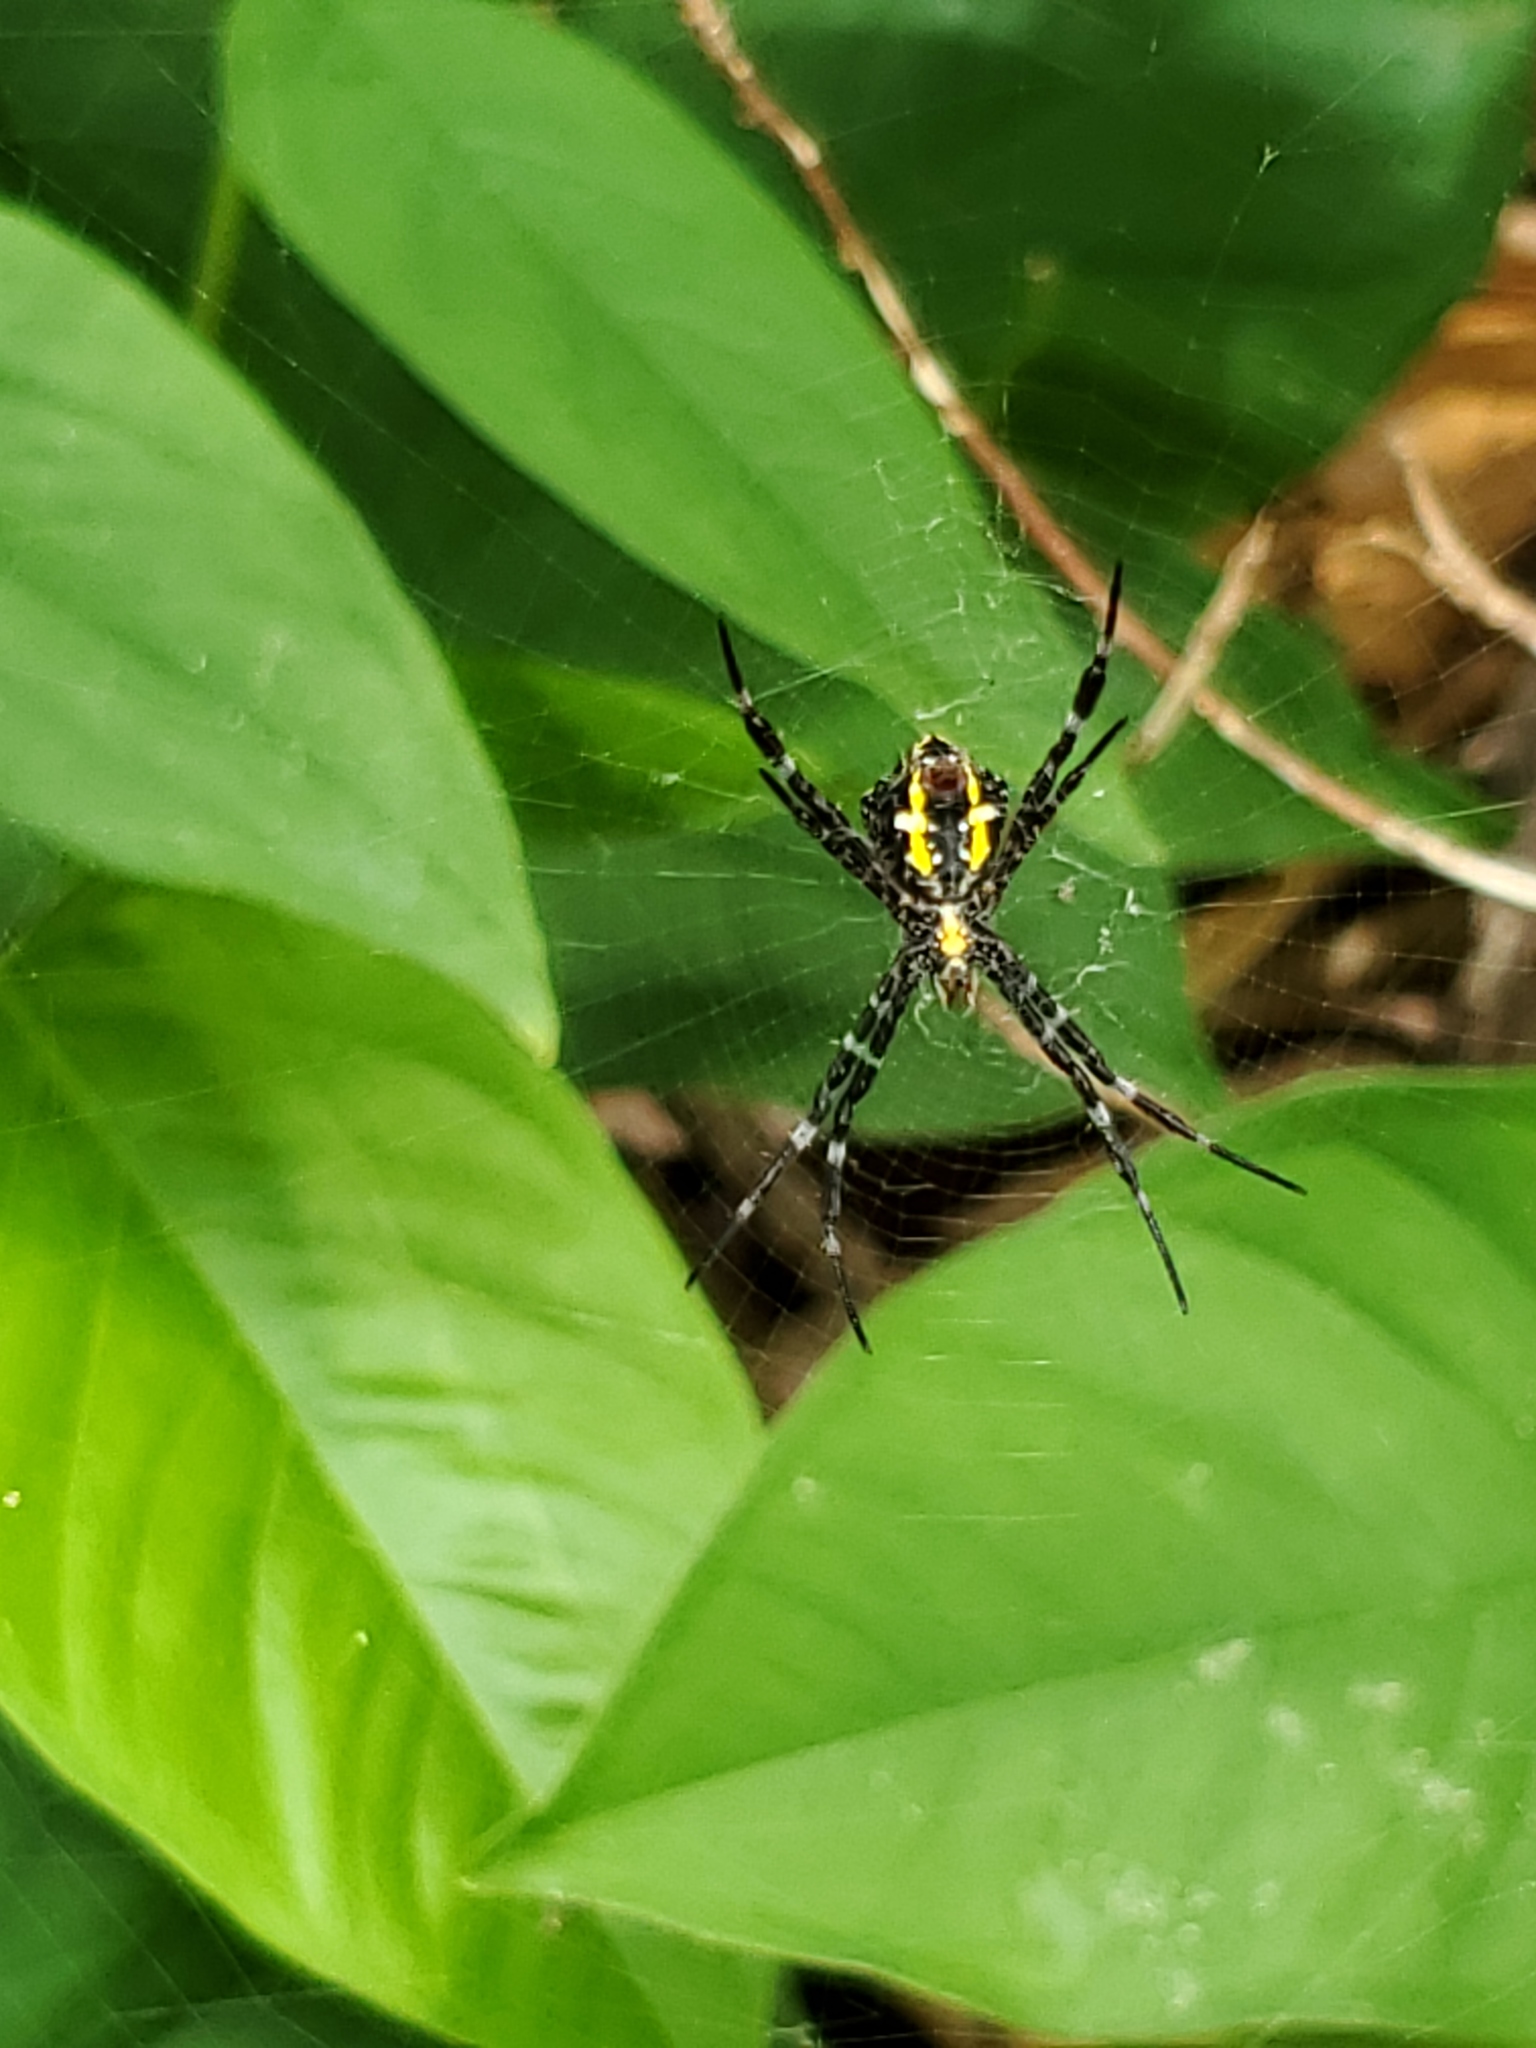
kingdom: Animalia
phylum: Arthropoda
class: Arachnida
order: Araneae
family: Araneidae
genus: Argiope
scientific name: Argiope appensa
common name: Garden spider
